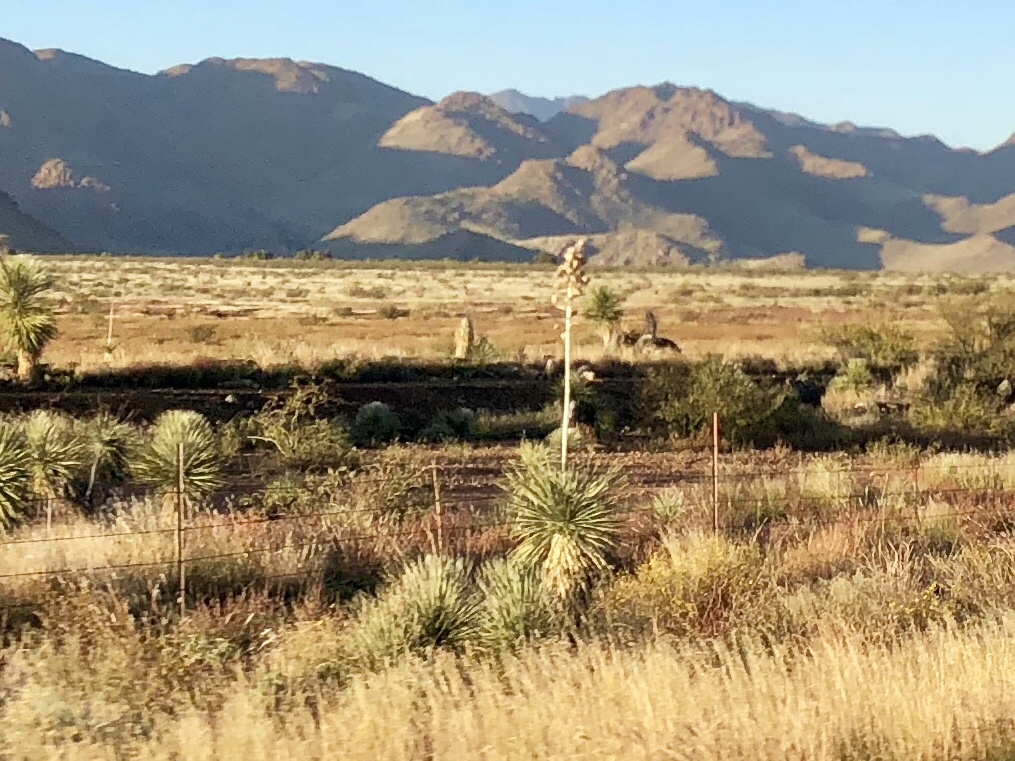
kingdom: Plantae
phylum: Tracheophyta
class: Liliopsida
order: Asparagales
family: Asparagaceae
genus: Yucca
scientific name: Yucca elata
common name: Palmella
